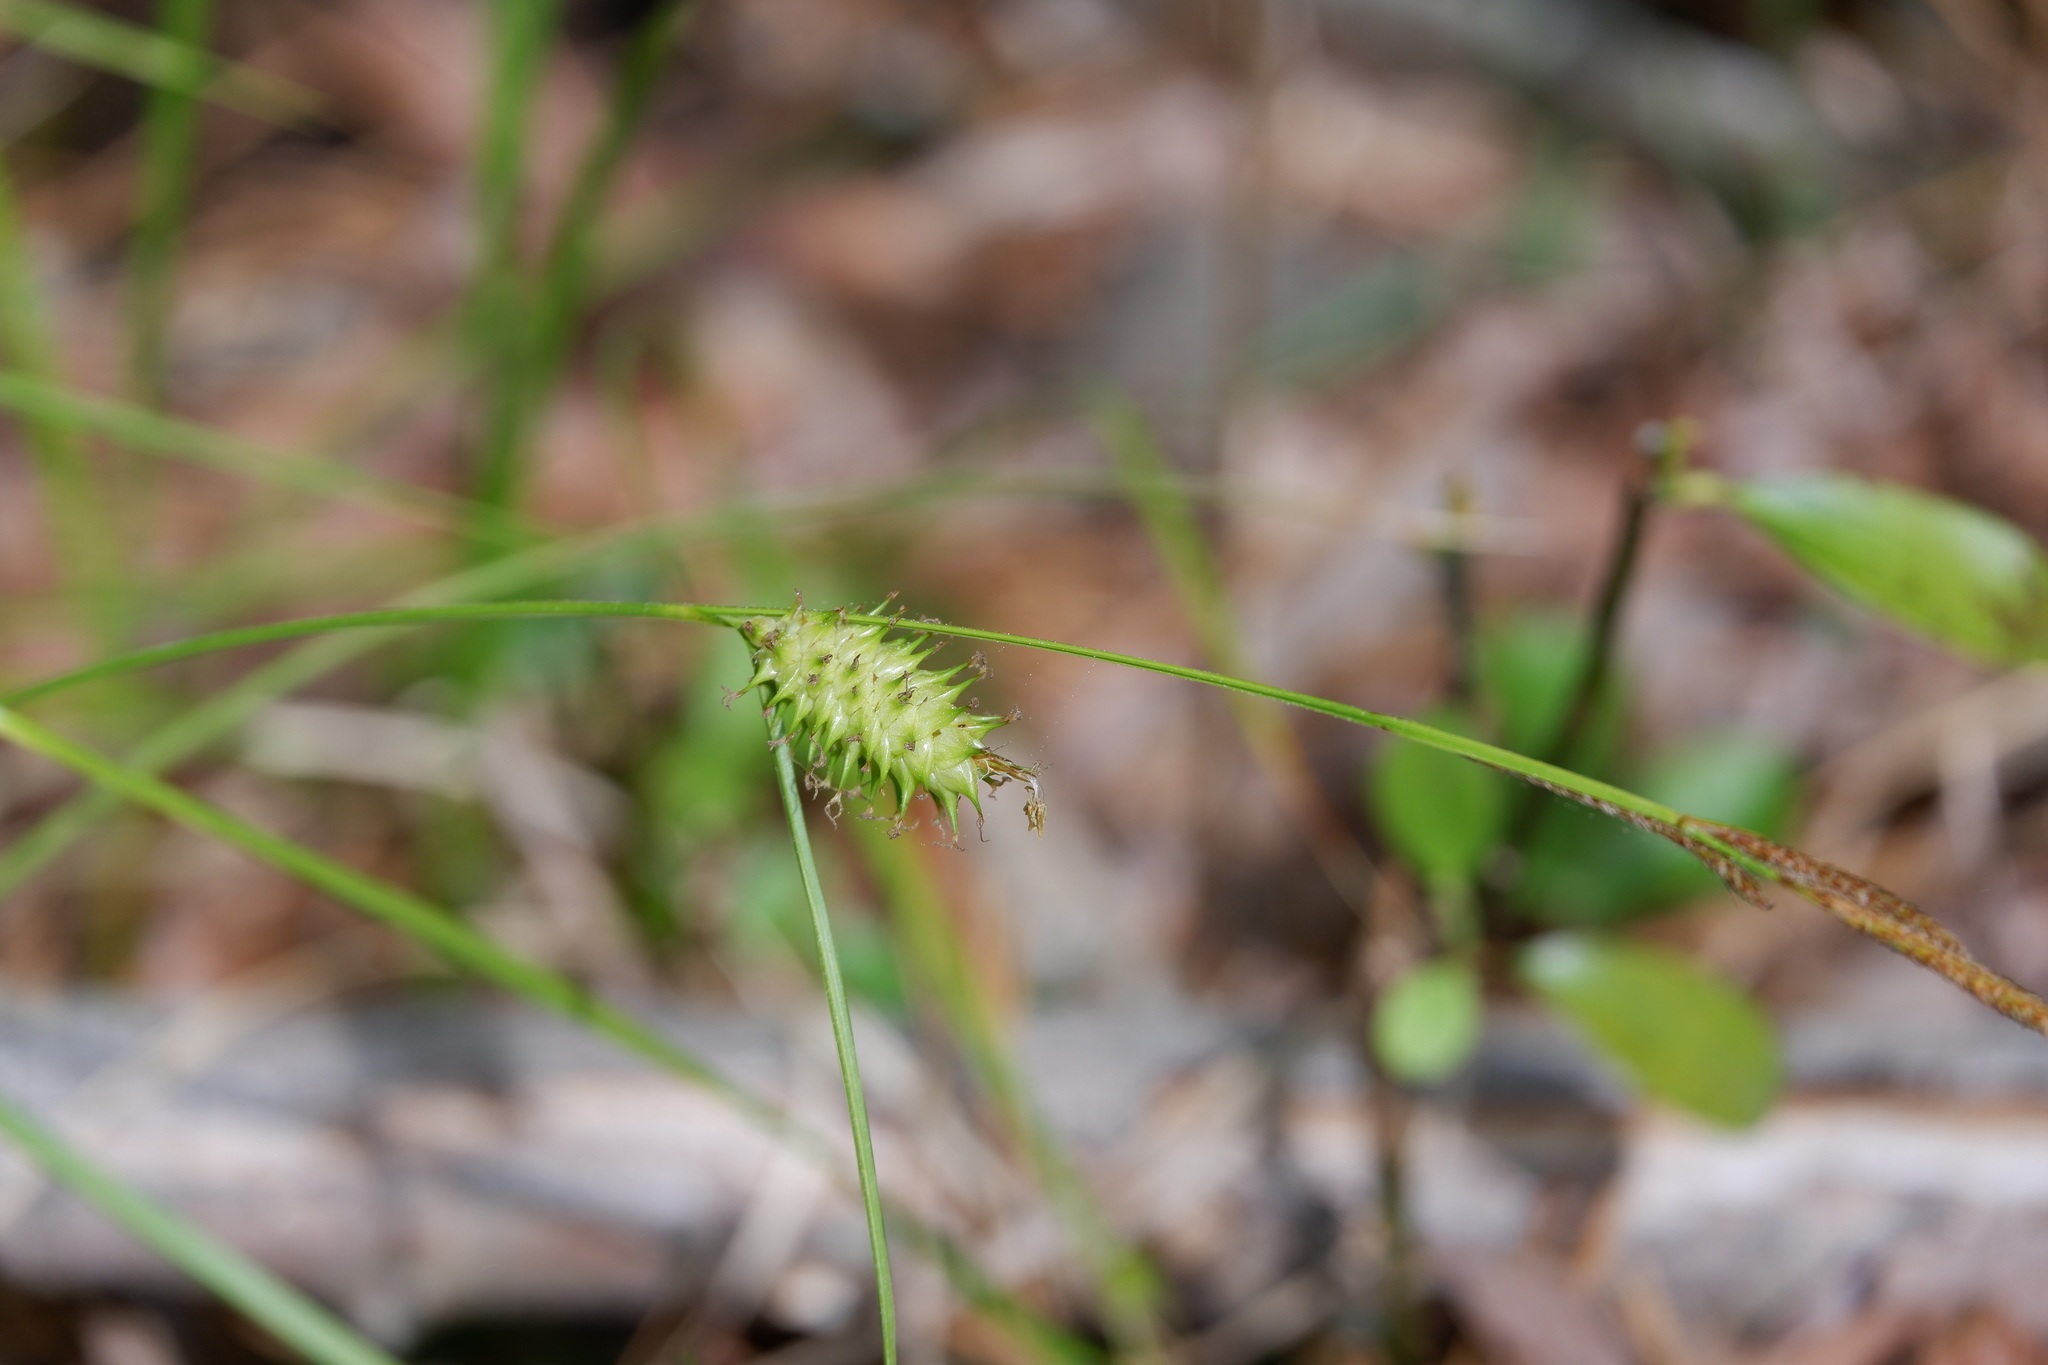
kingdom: Plantae
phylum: Tracheophyta
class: Liliopsida
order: Poales
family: Cyperaceae
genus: Carex
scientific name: Carex bullata
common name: Button sedge
